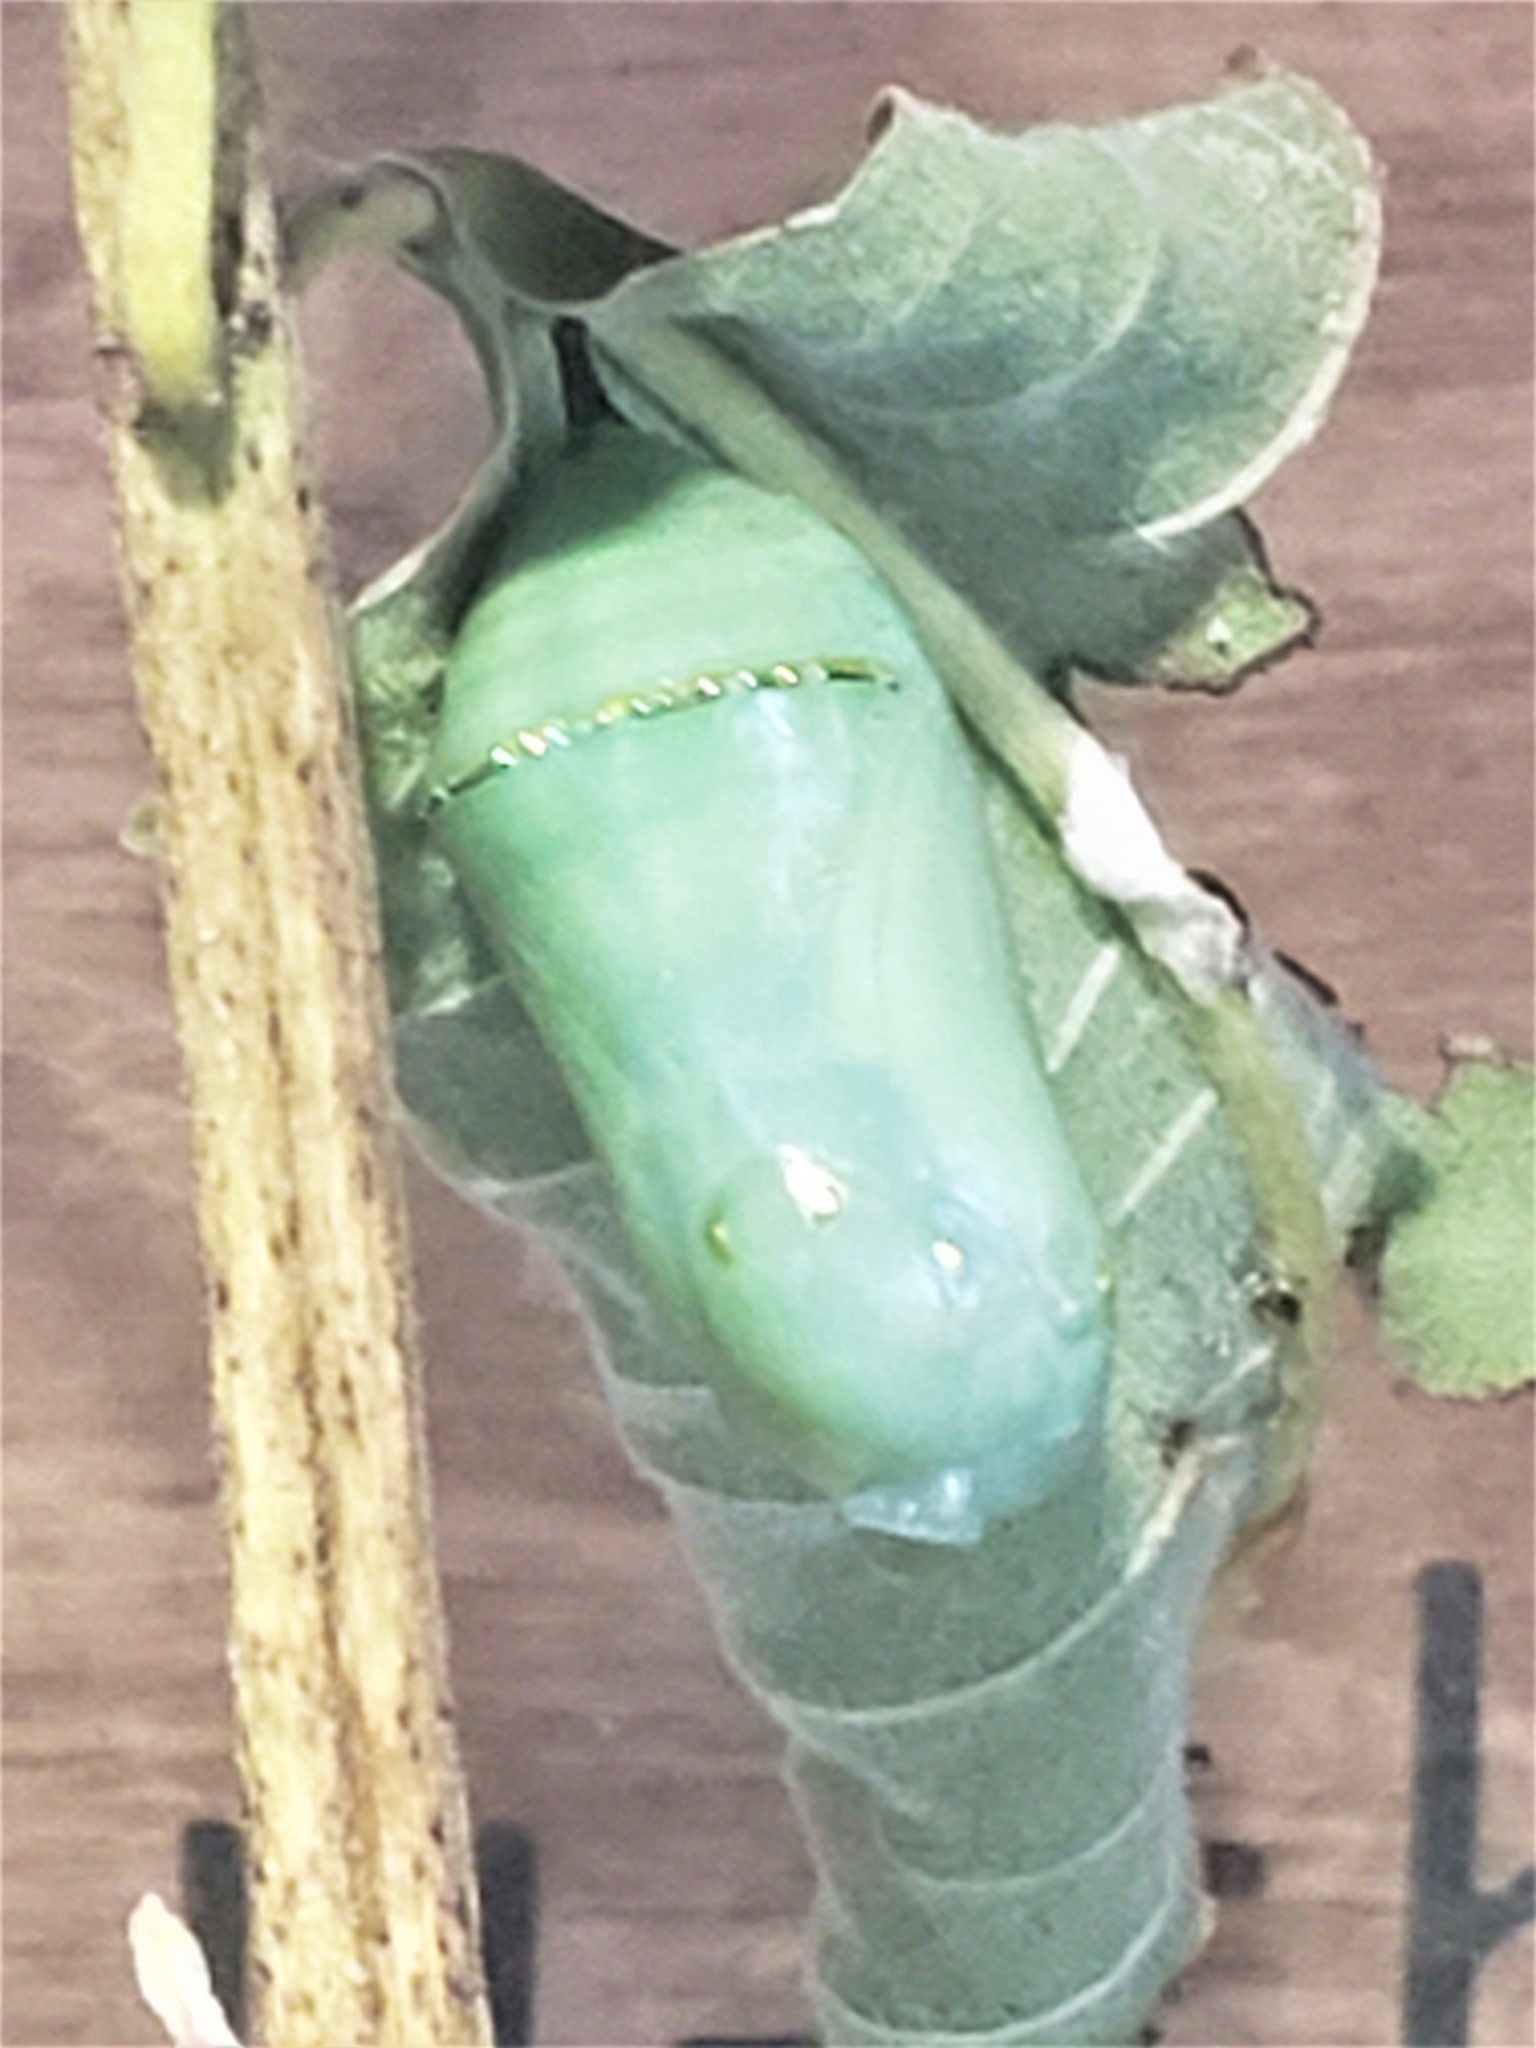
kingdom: Animalia
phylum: Arthropoda
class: Insecta
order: Lepidoptera
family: Nymphalidae
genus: Danaus
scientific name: Danaus plexippus
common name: Monarch
